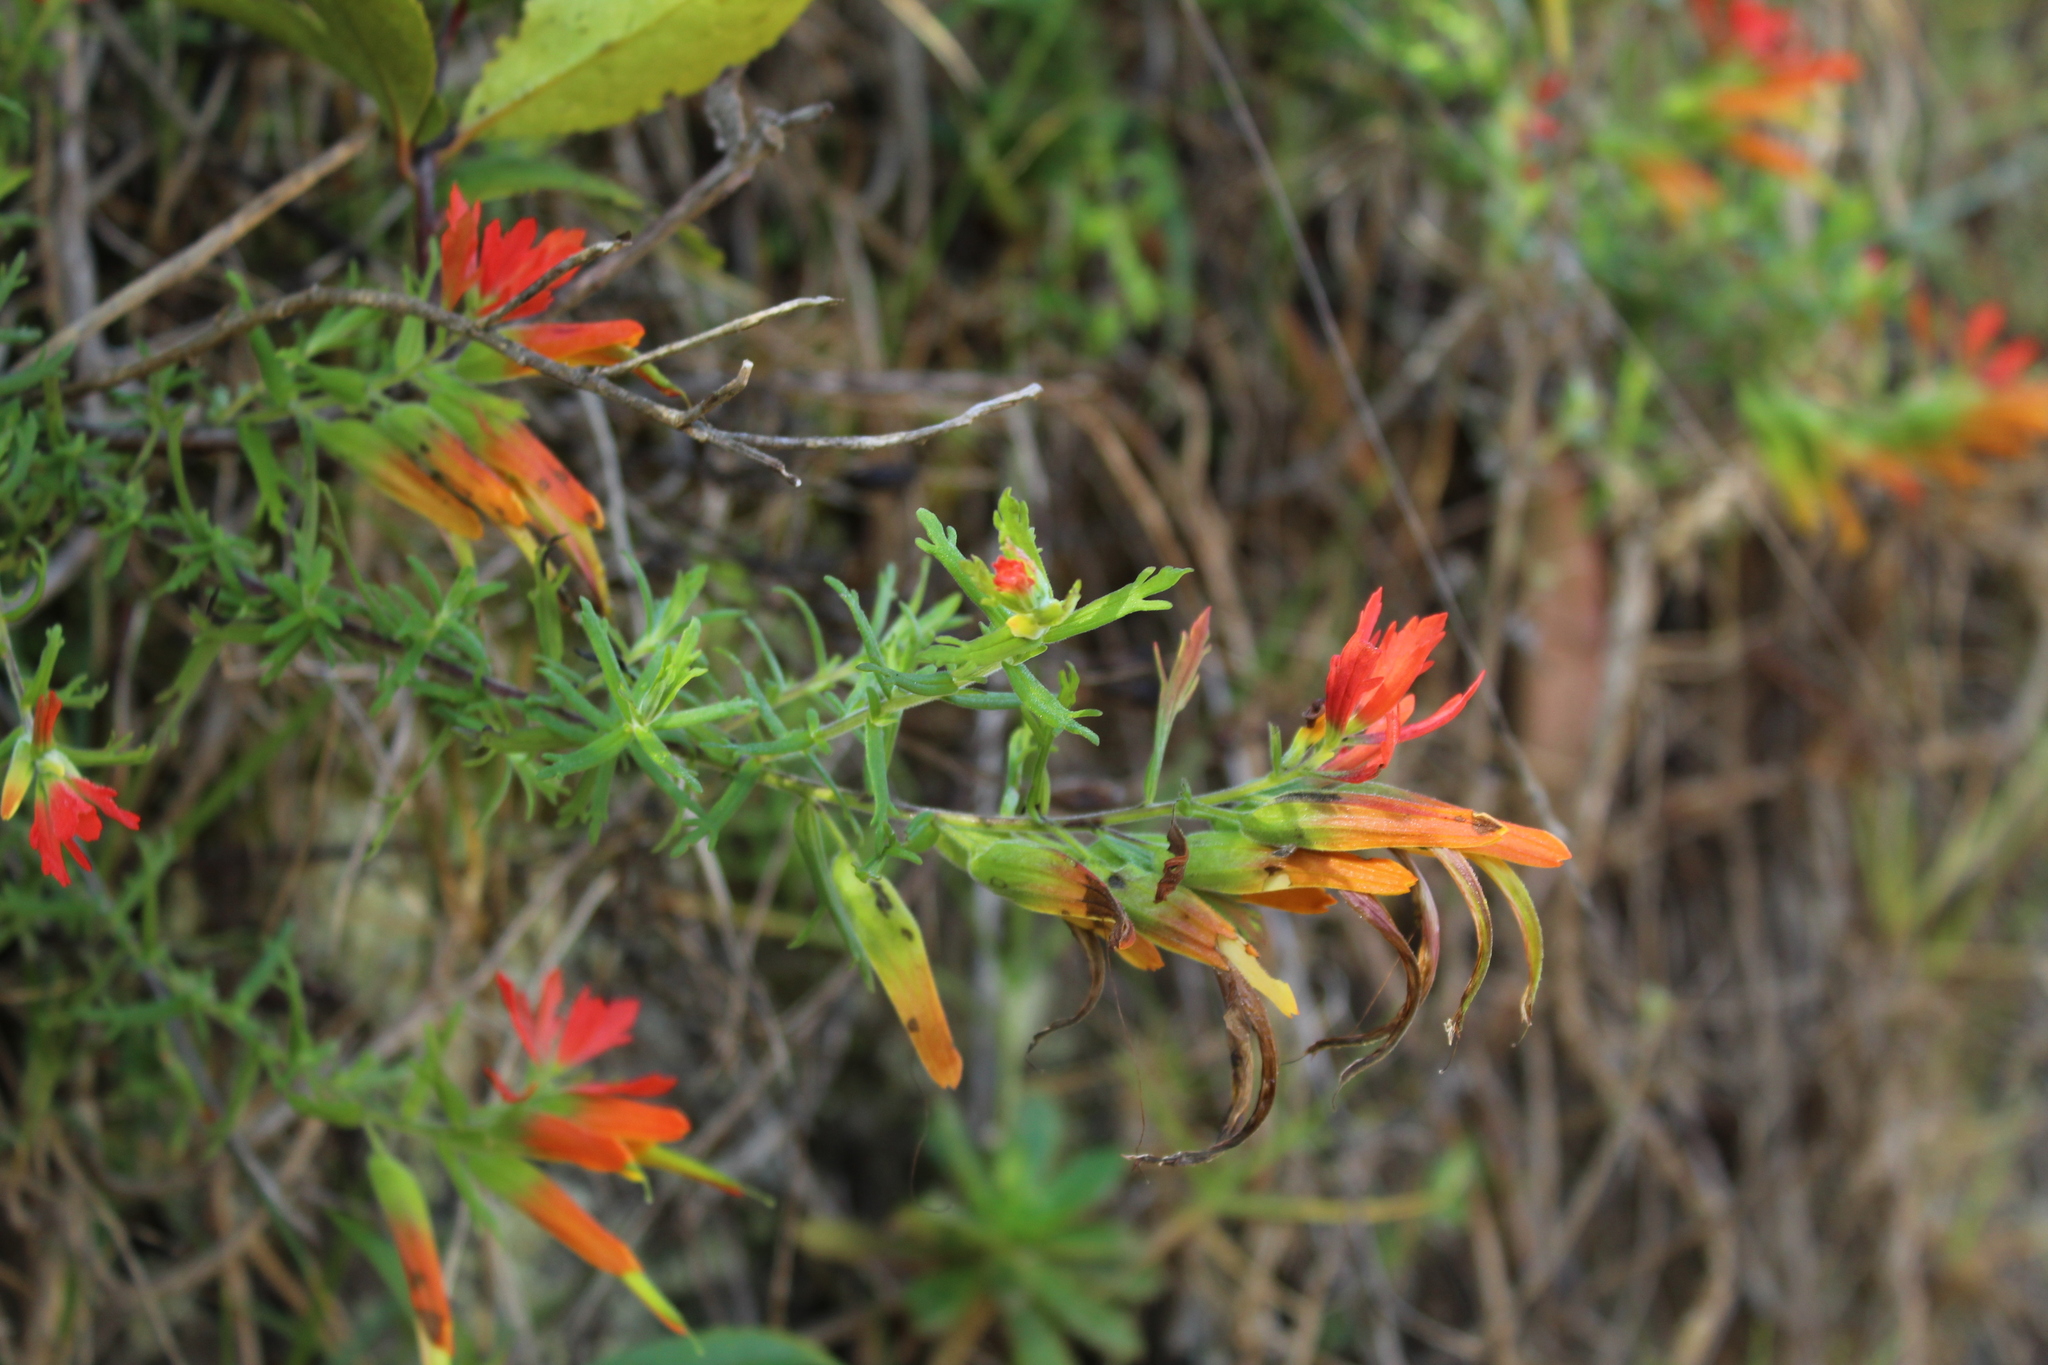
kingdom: Plantae
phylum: Tracheophyta
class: Magnoliopsida
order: Lamiales
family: Orobanchaceae
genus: Castilleja
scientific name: Castilleja fissifolia
